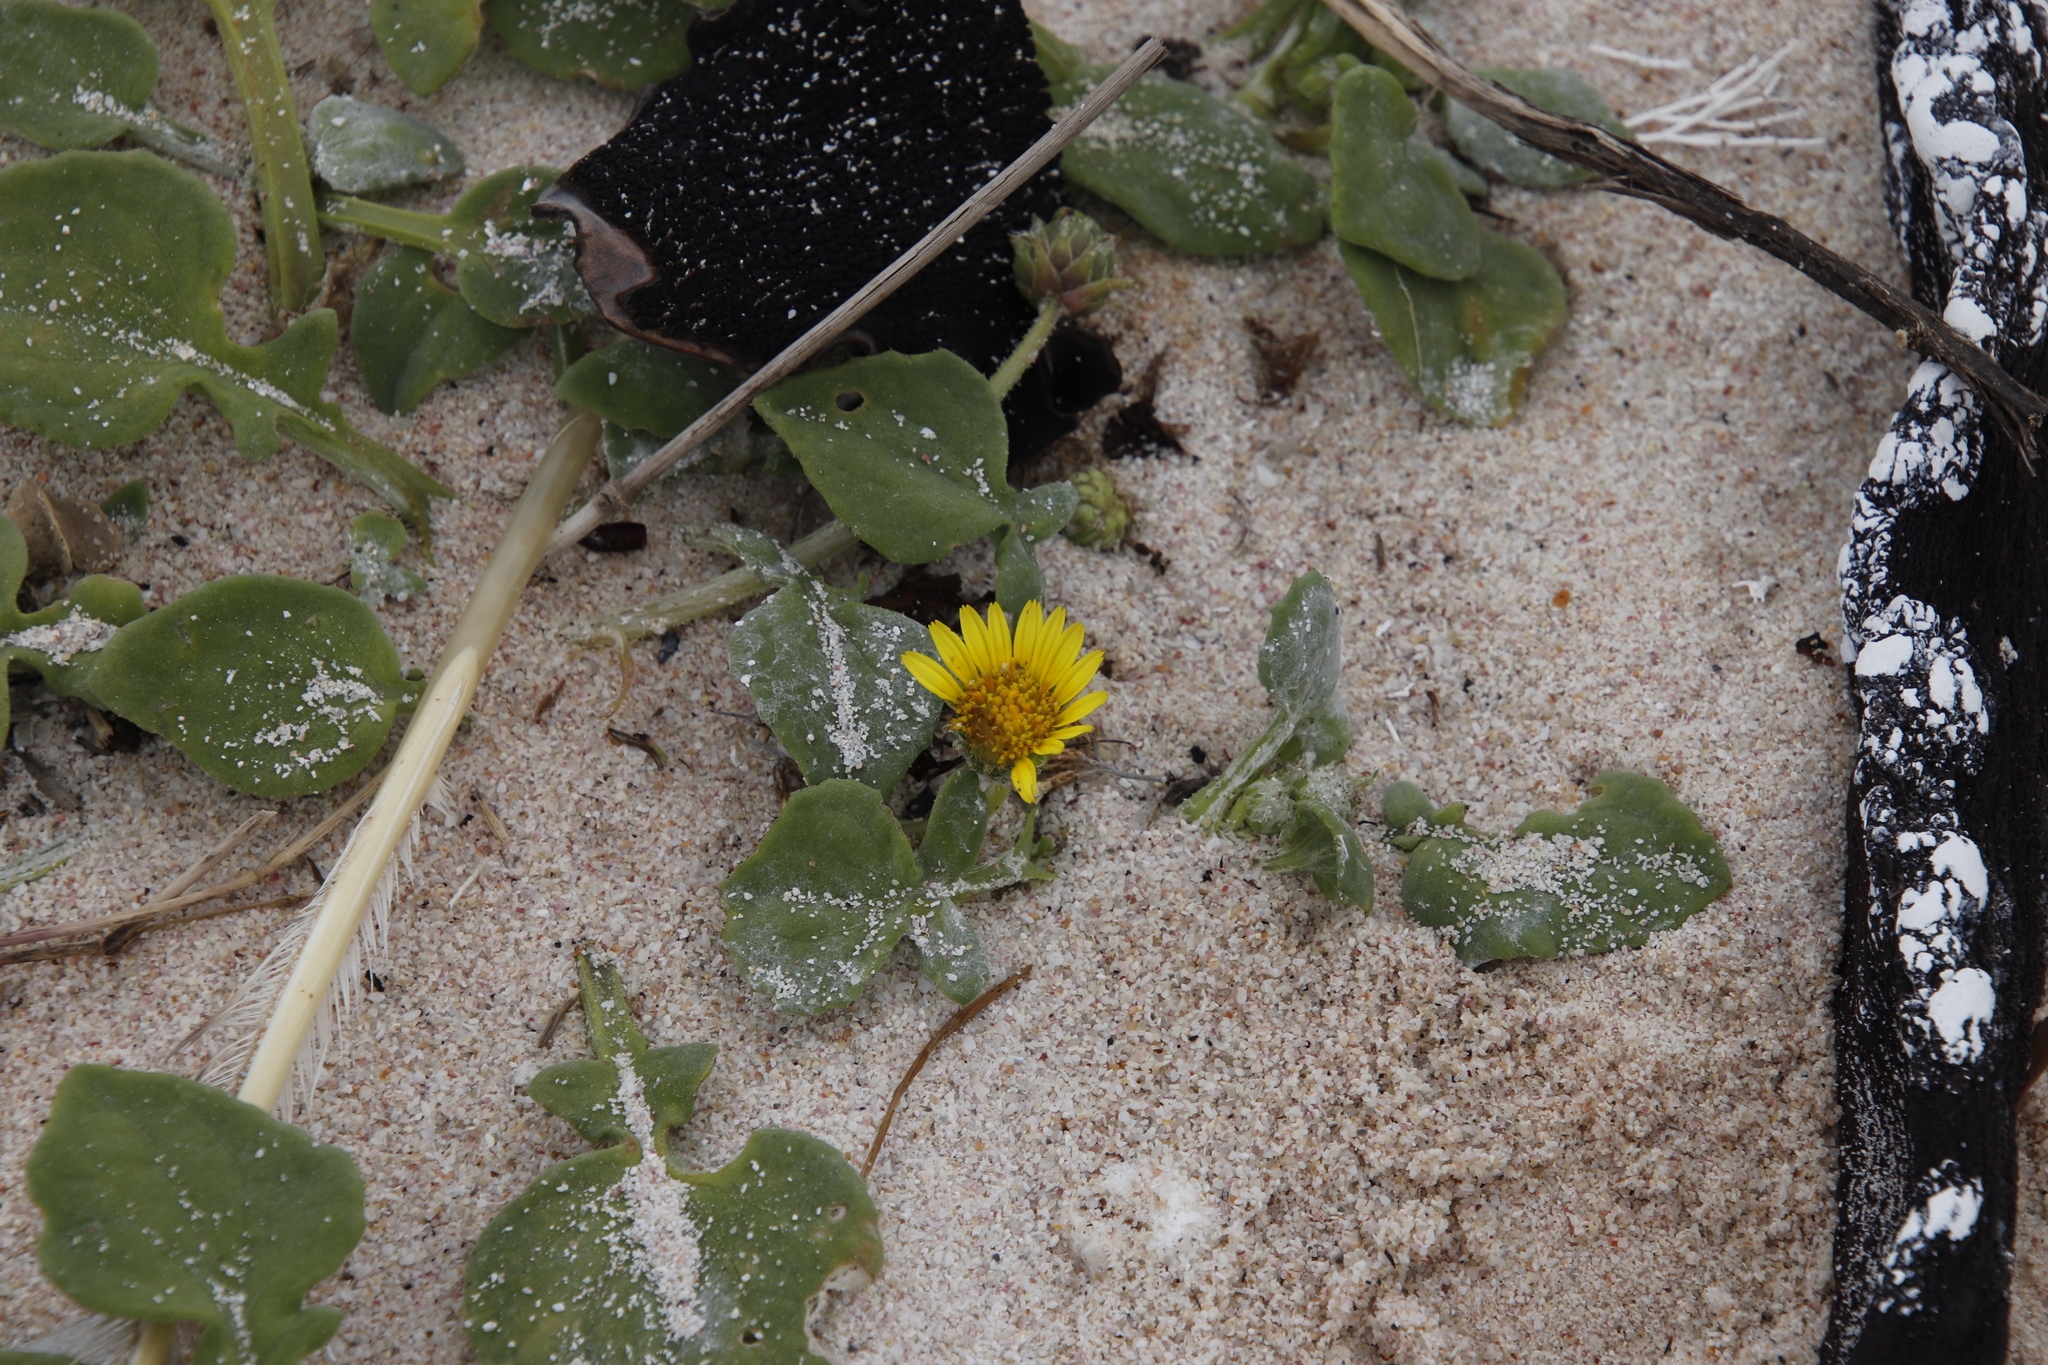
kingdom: Plantae
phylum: Tracheophyta
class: Magnoliopsida
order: Asterales
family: Asteraceae
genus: Arctotheca
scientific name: Arctotheca populifolia
